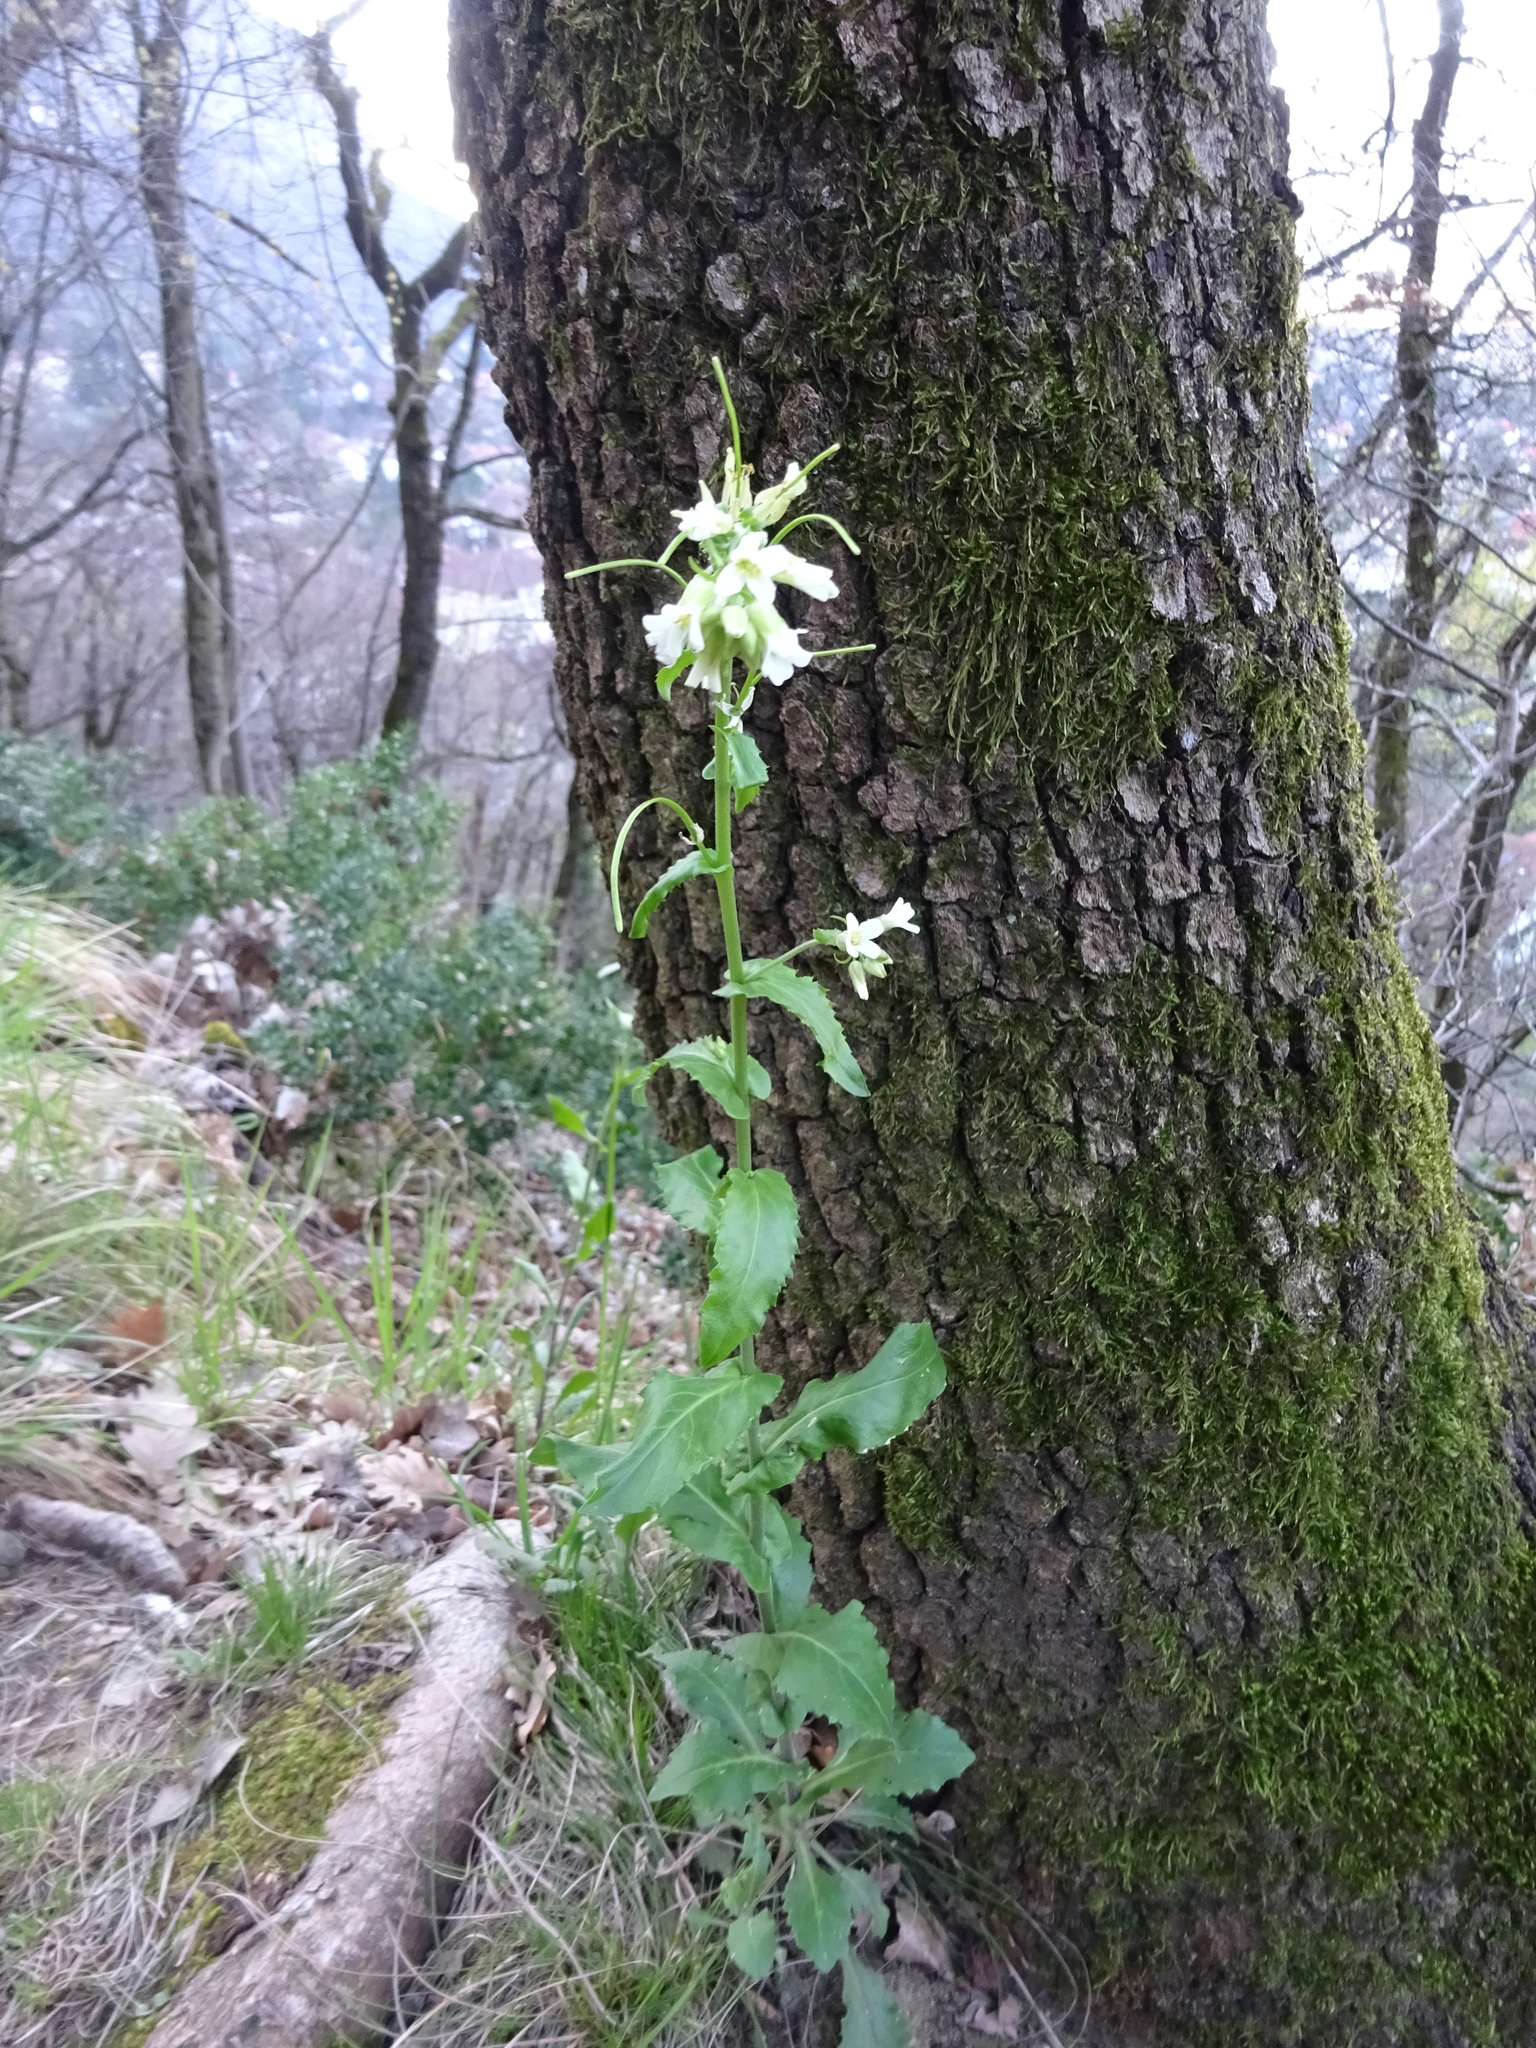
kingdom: Plantae
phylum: Tracheophyta
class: Magnoliopsida
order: Brassicales
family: Brassicaceae
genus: Pseudoturritis
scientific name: Pseudoturritis turrita
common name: Tower cress
